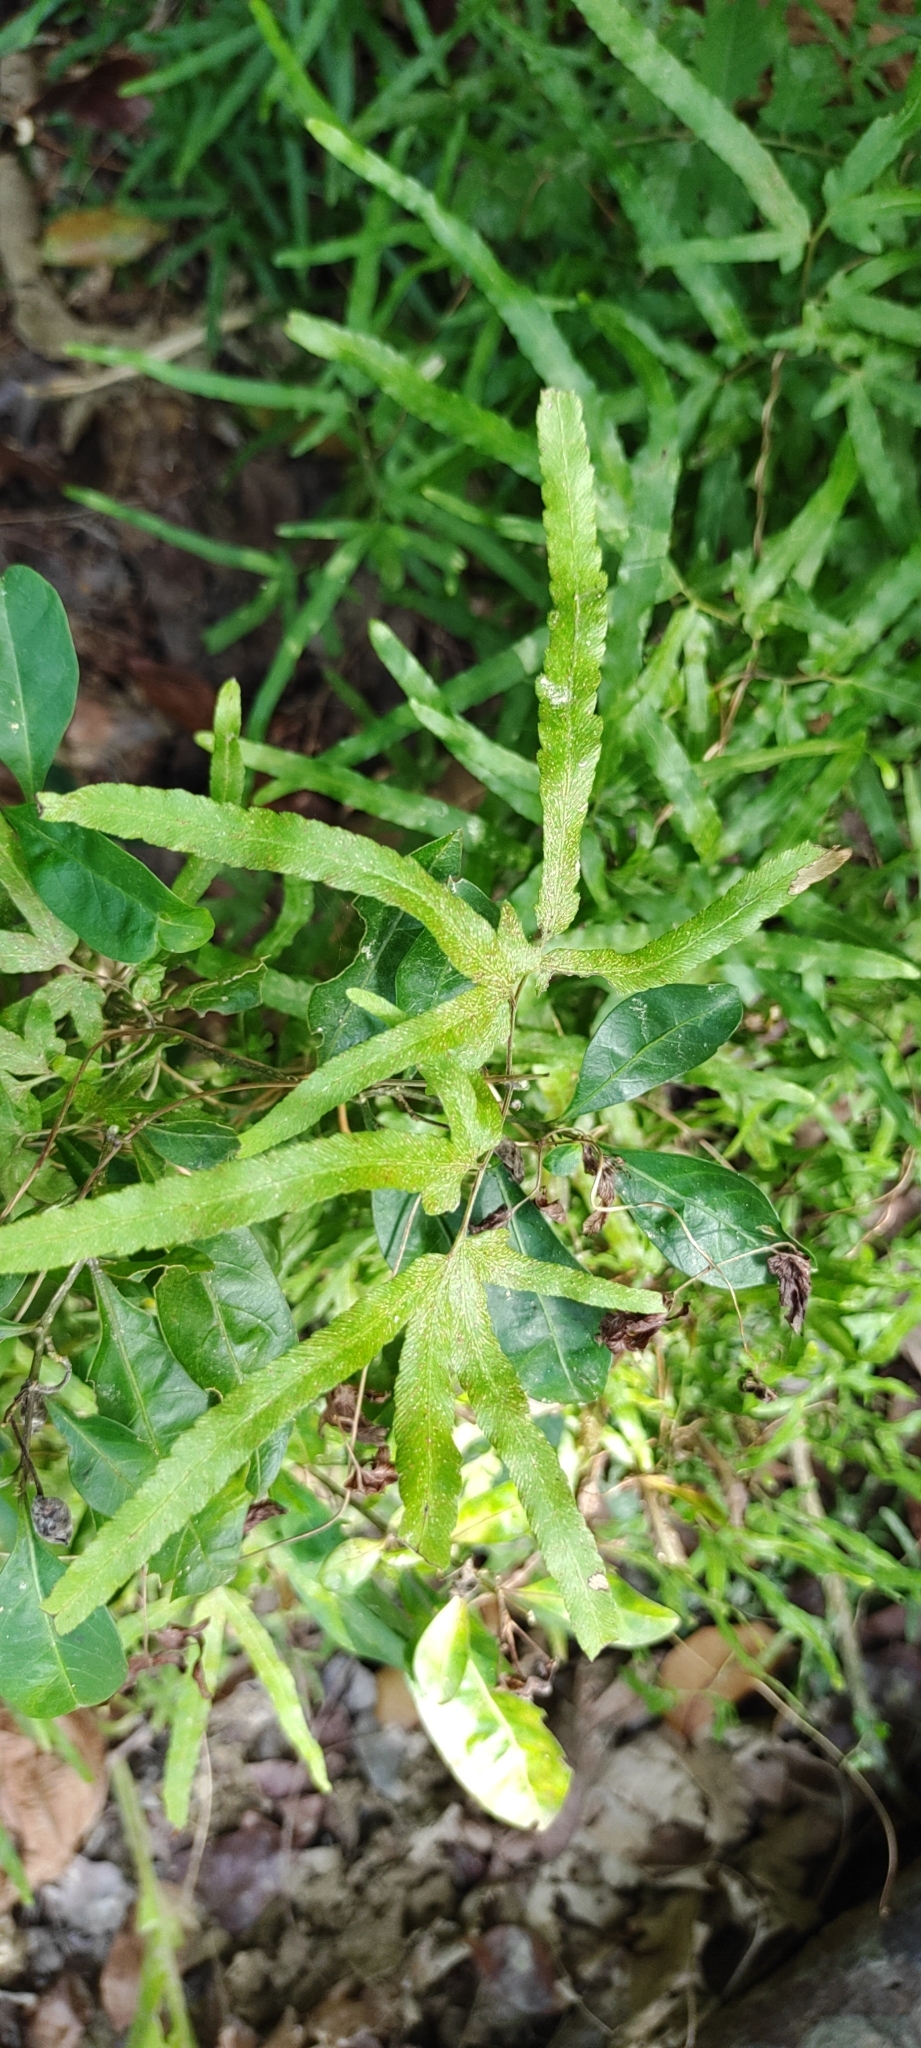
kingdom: Plantae
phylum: Tracheophyta
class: Polypodiopsida
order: Schizaeales
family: Lygodiaceae
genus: Lygodium
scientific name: Lygodium japonicum
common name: Japanese climbing fern
